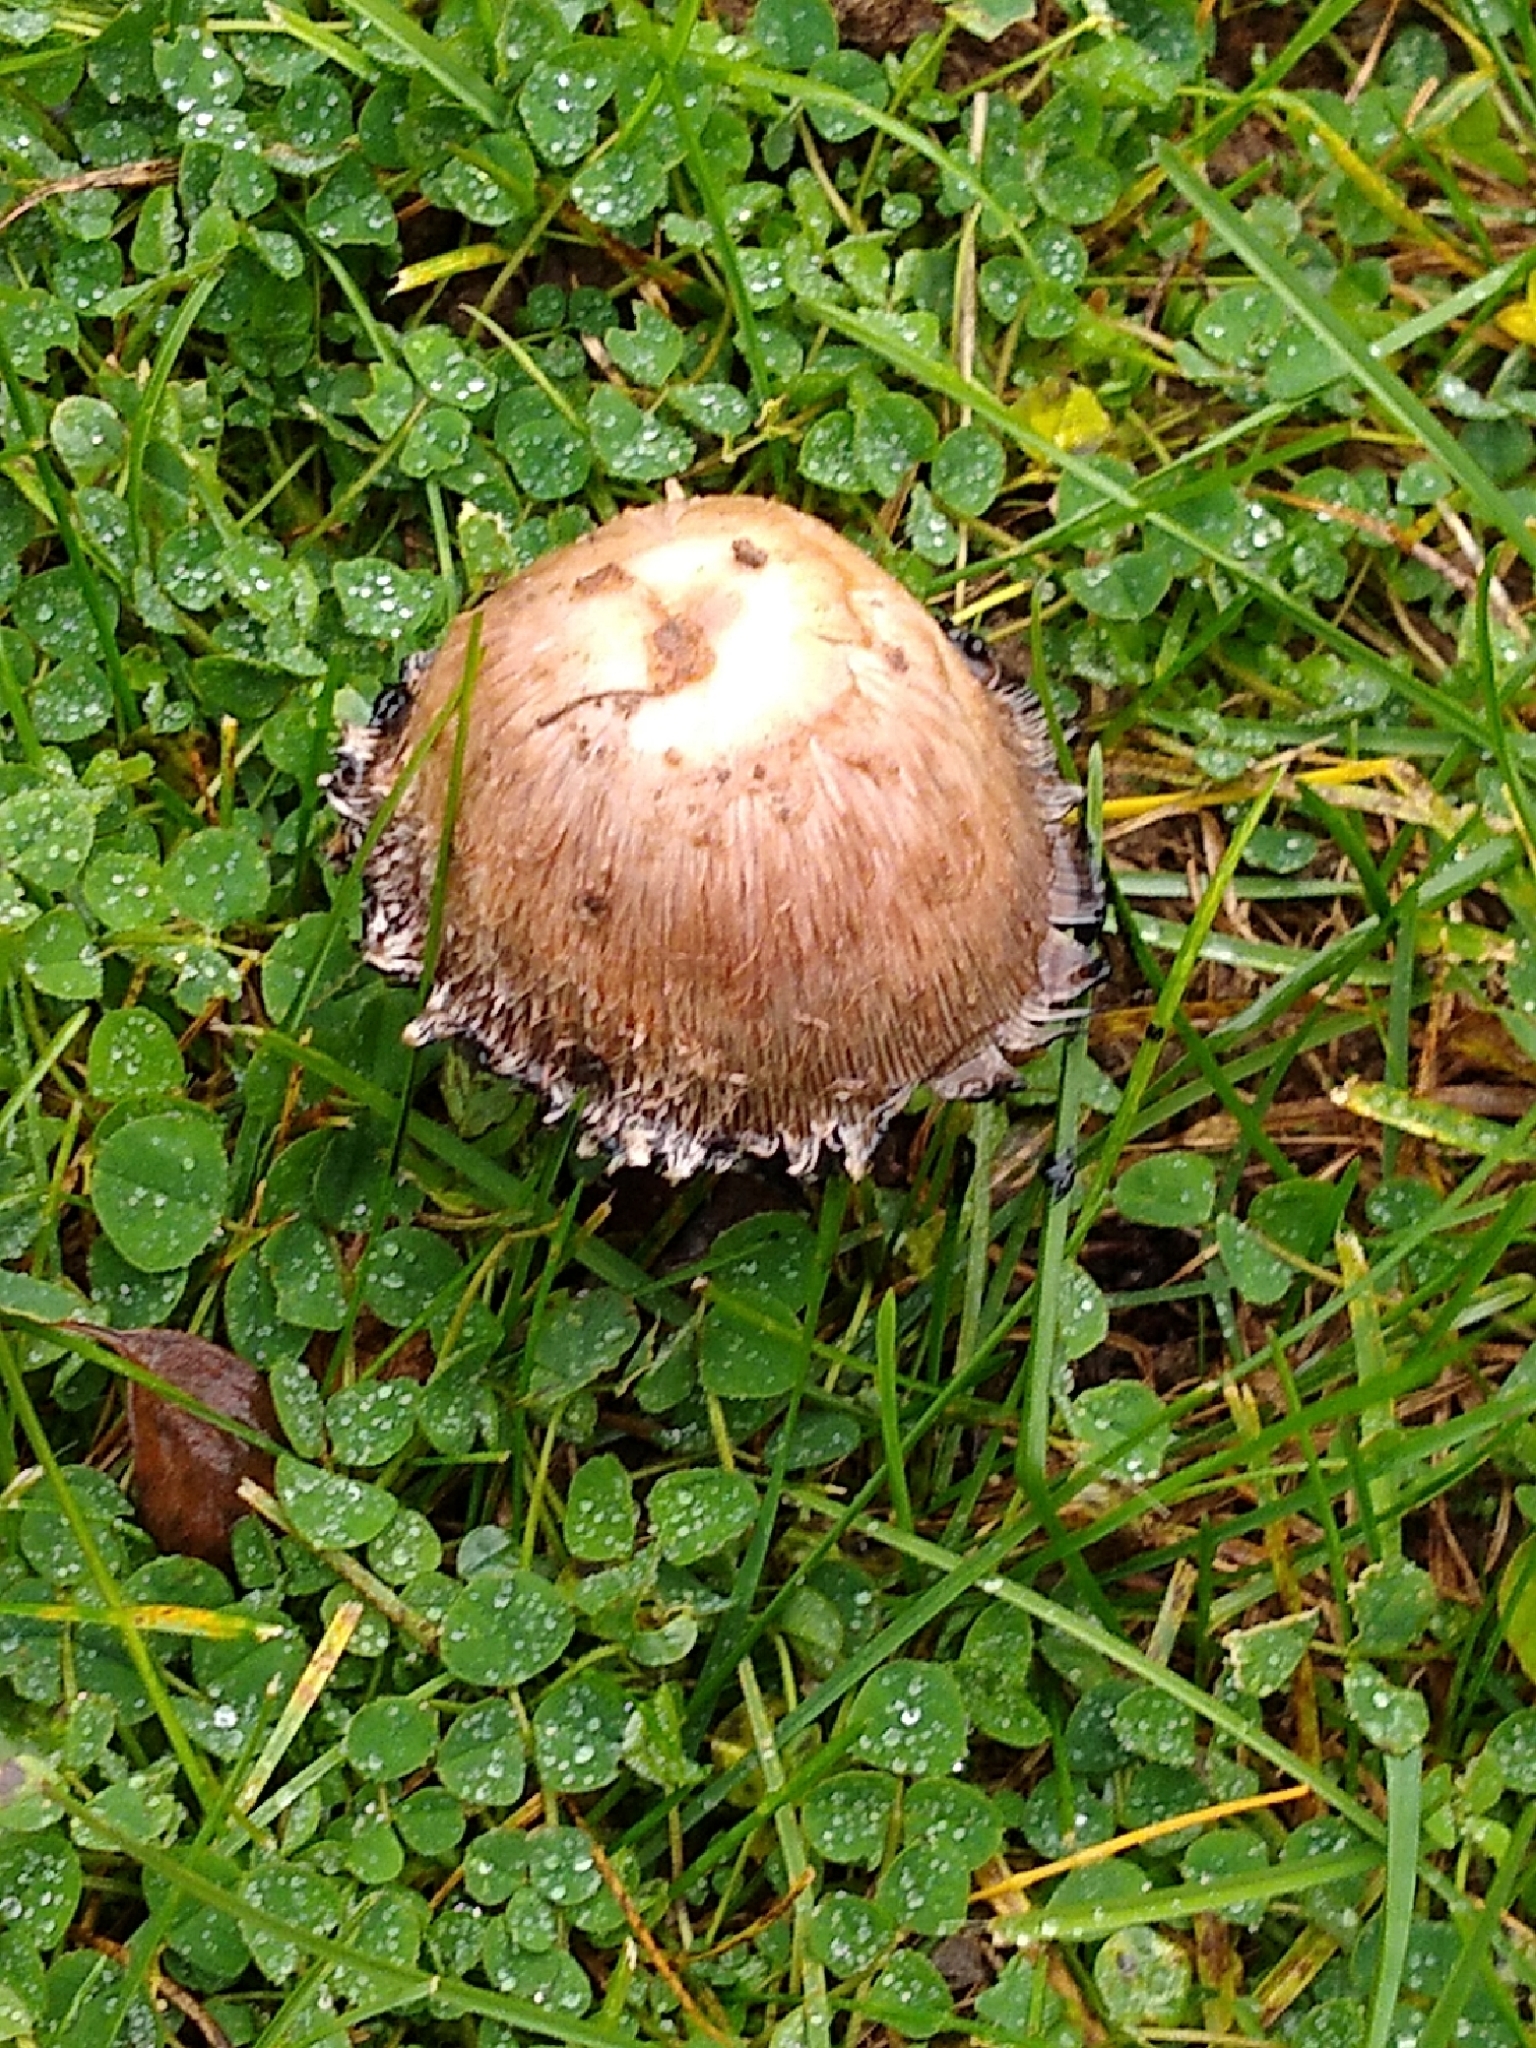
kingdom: Fungi
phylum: Basidiomycota
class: Agaricomycetes
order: Agaricales
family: Agaricaceae
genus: Coprinus
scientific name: Coprinus comatus
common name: Lawyer's wig
